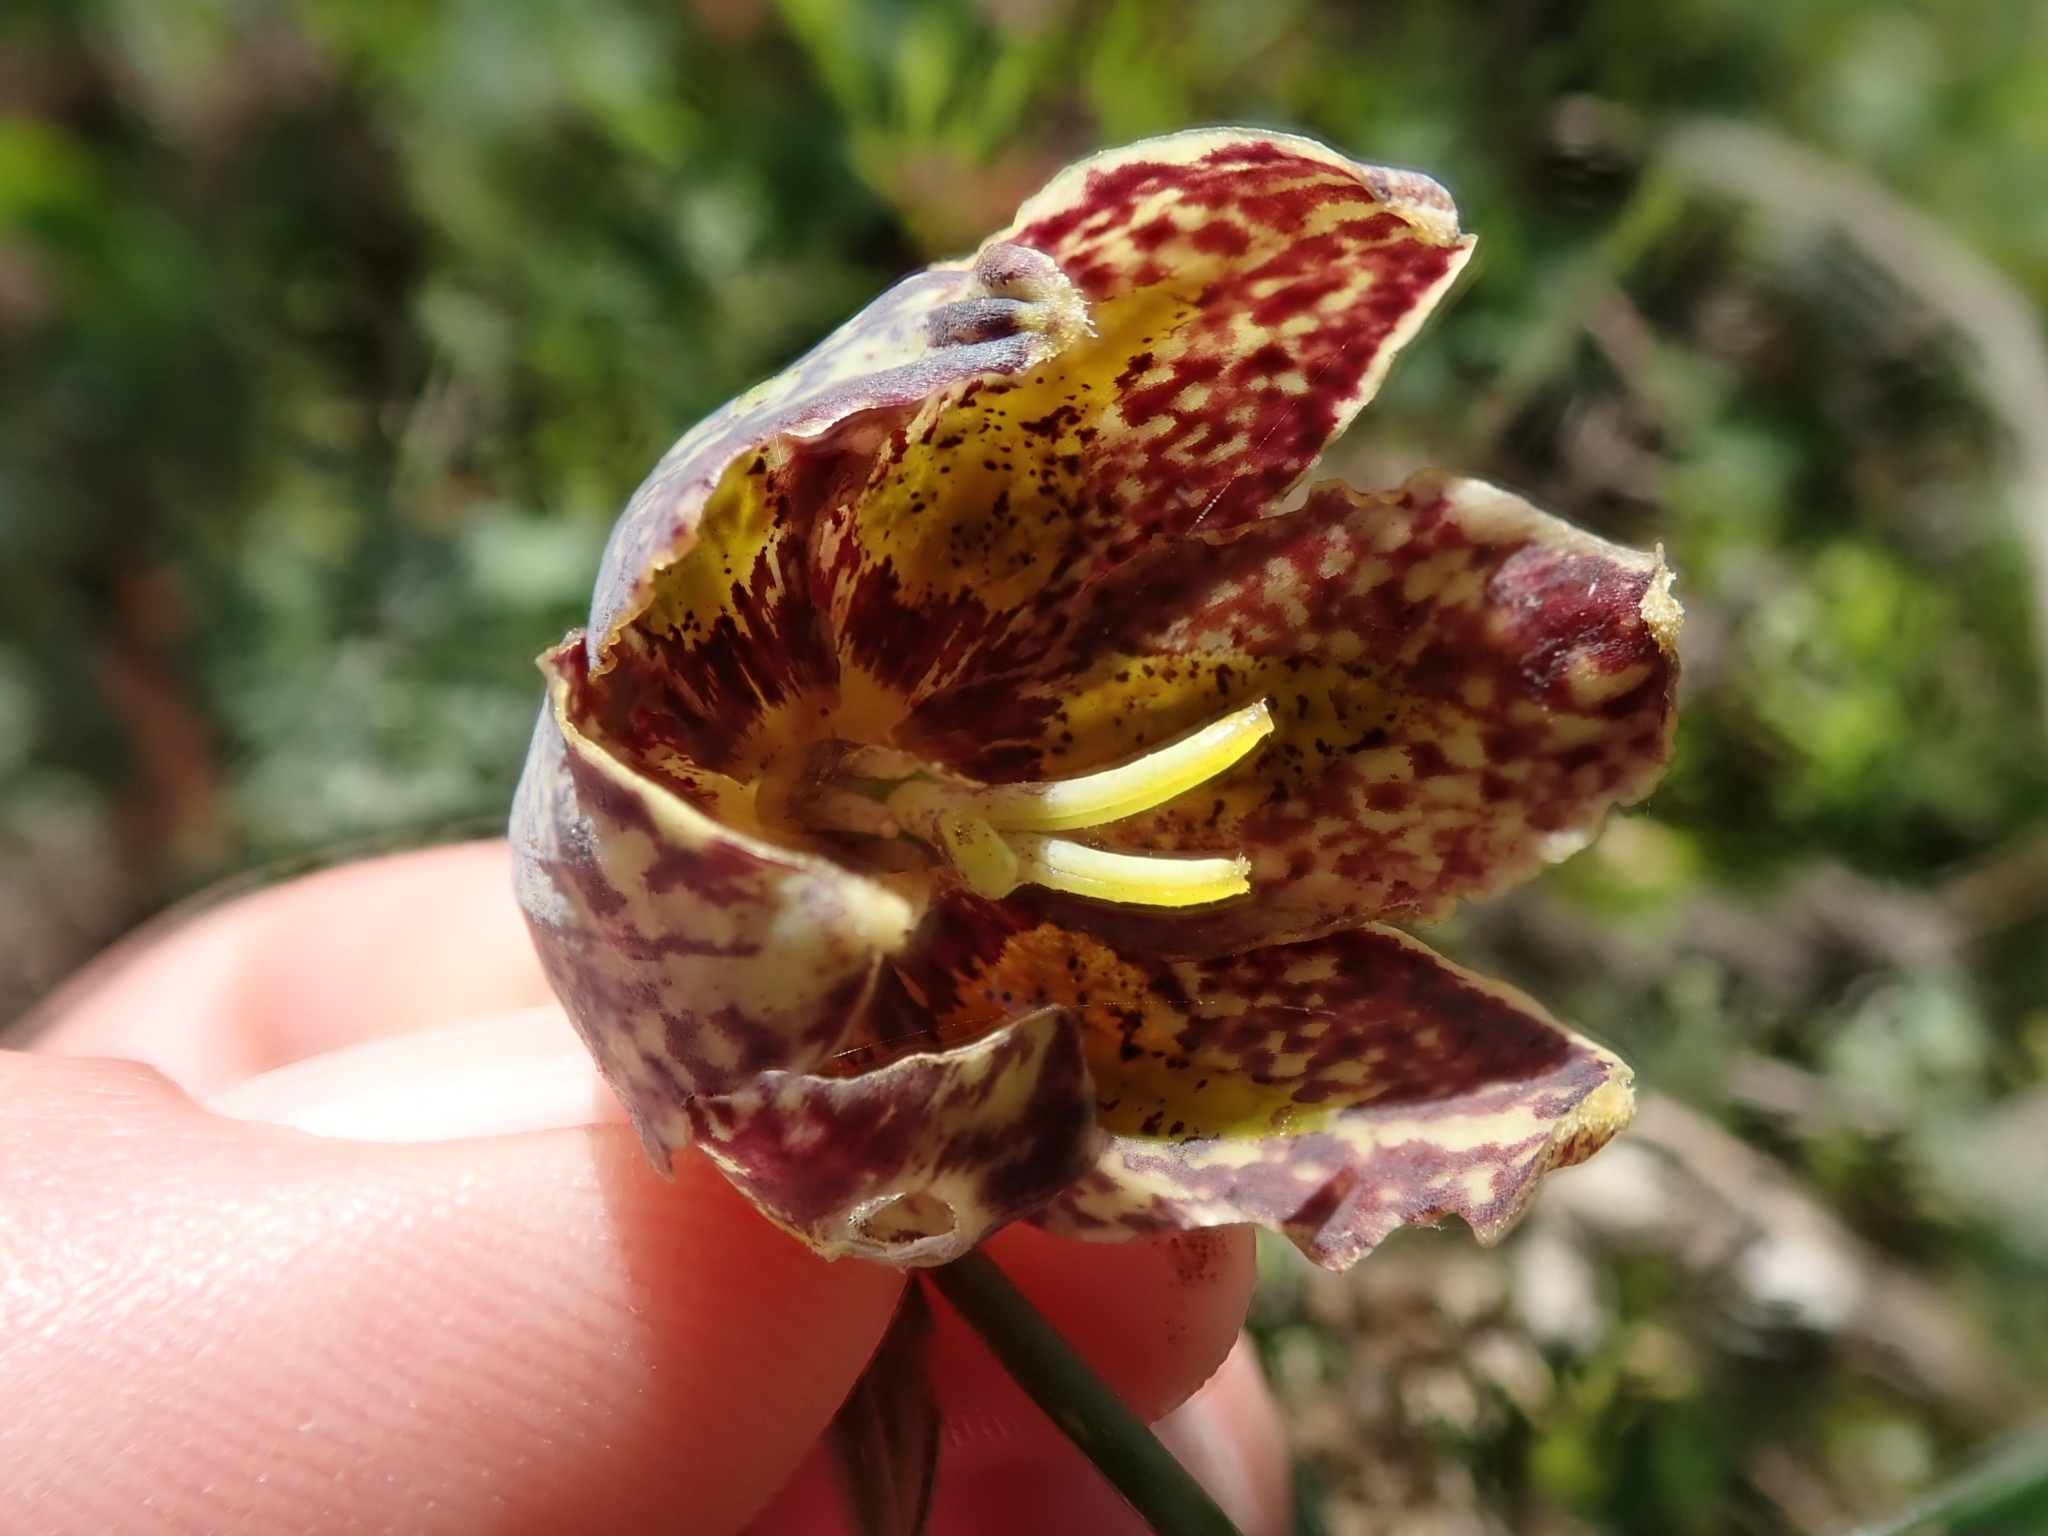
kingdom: Plantae
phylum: Tracheophyta
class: Liliopsida
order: Liliales
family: Liliaceae
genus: Fritillaria
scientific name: Fritillaria affinis
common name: Ojai fritillary
